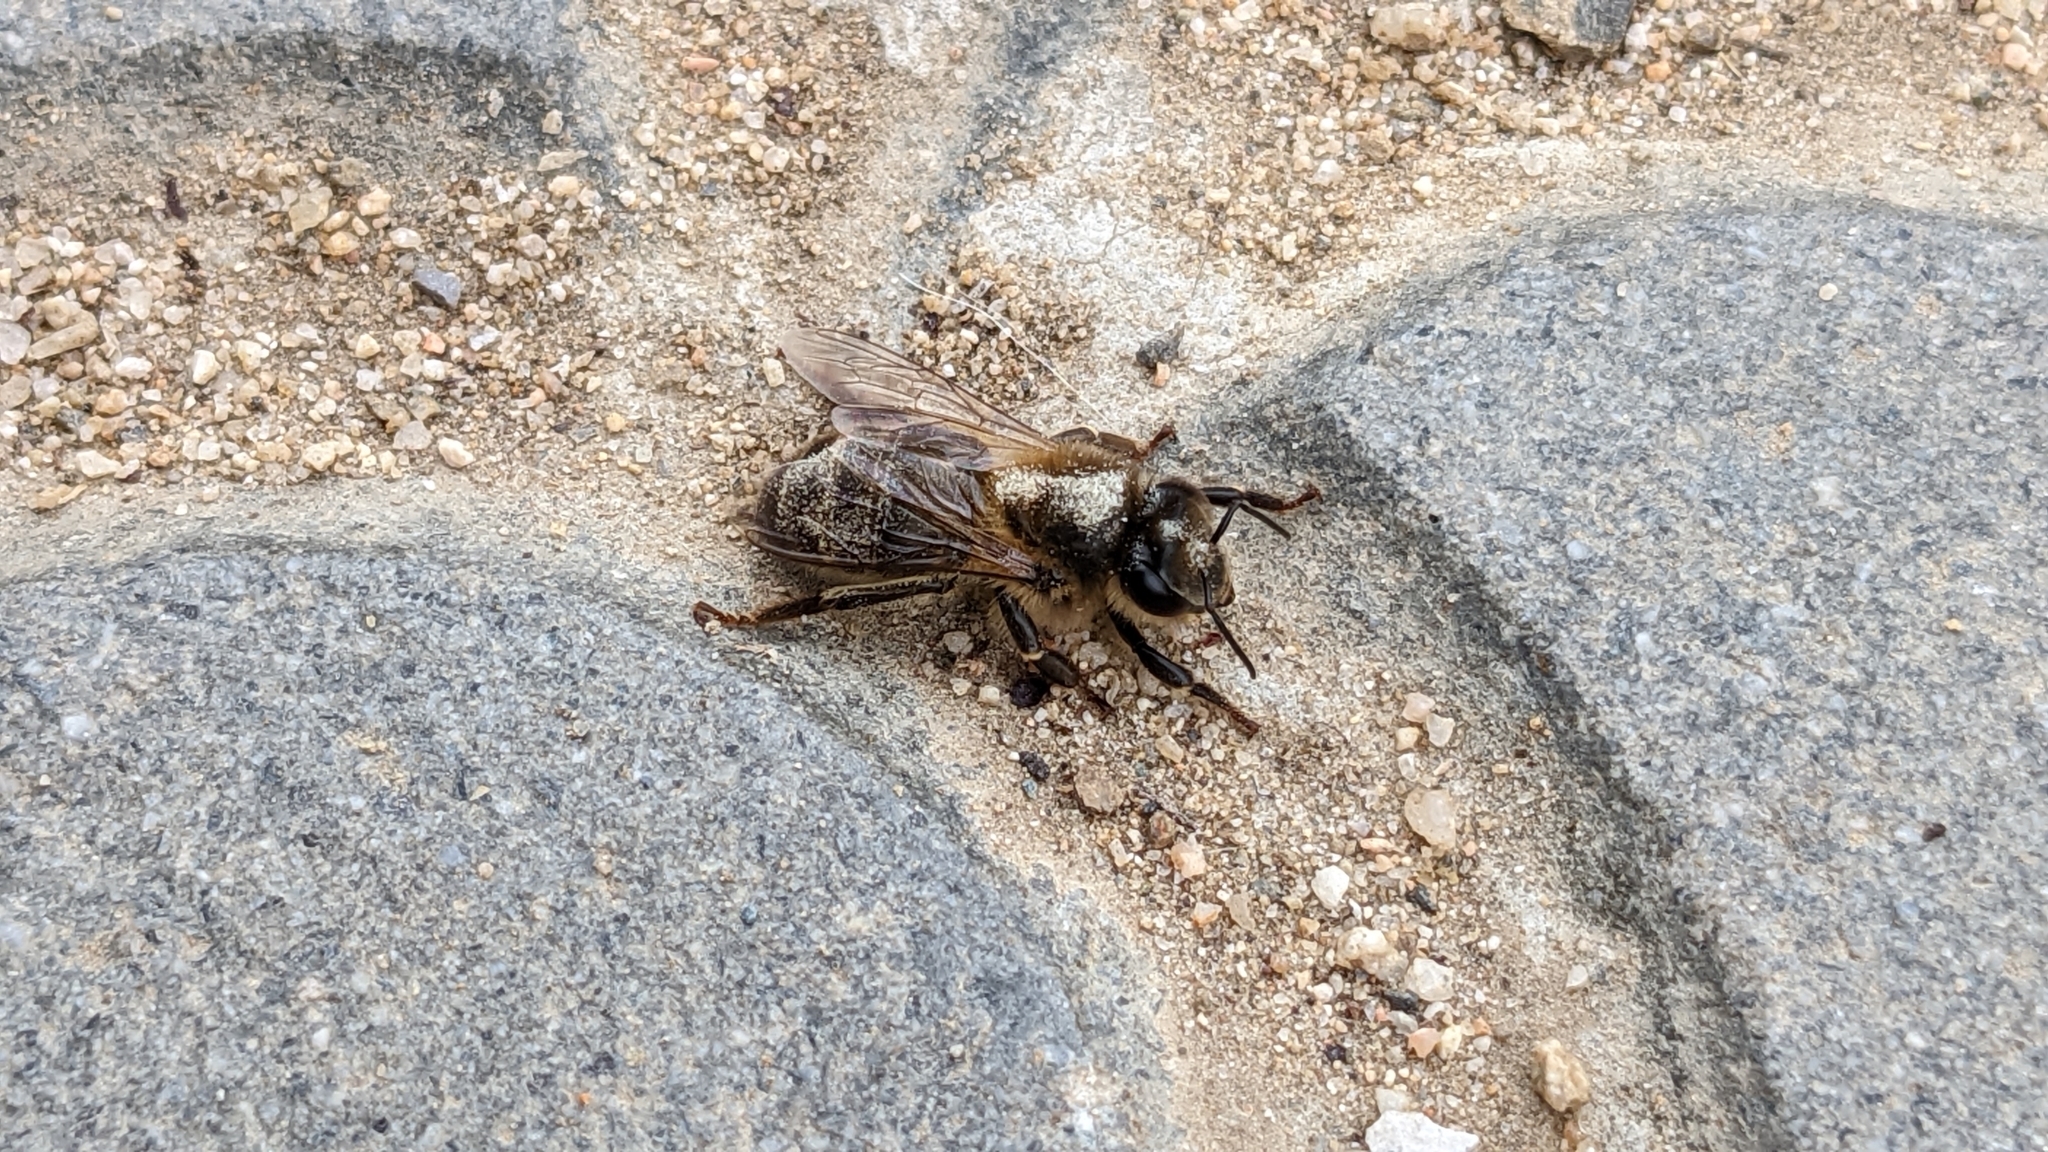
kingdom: Animalia
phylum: Arthropoda
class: Insecta
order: Hymenoptera
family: Apidae
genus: Apis
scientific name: Apis mellifera
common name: Honey bee
